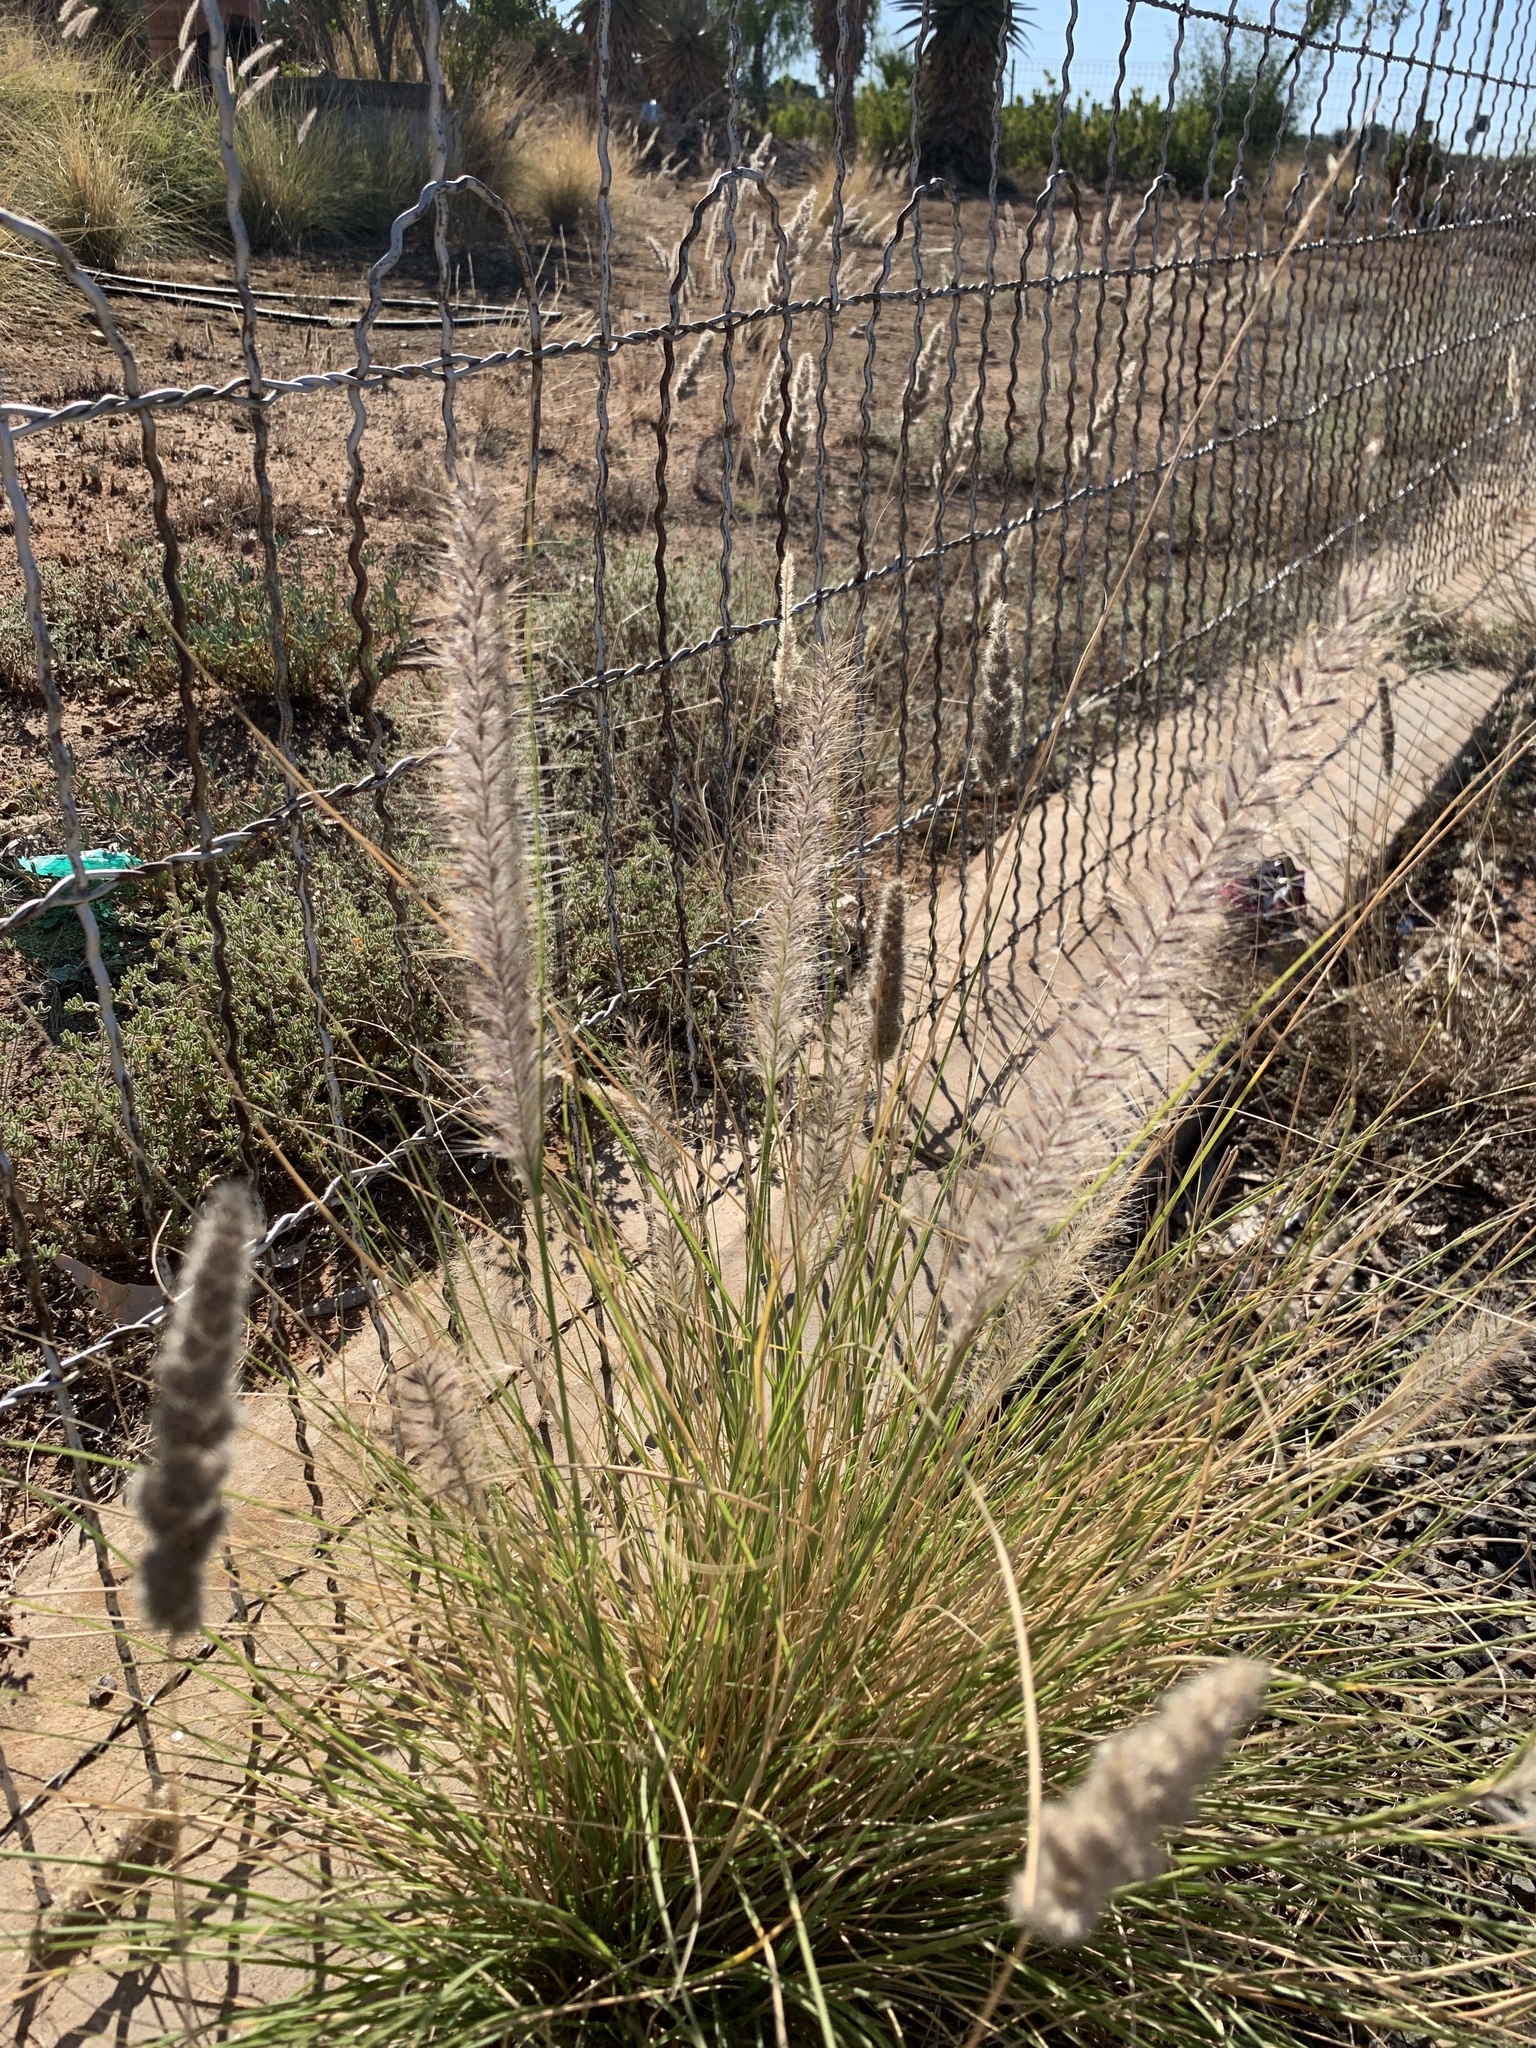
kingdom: Plantae
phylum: Tracheophyta
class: Liliopsida
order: Poales
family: Poaceae
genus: Cenchrus
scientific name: Cenchrus setaceus
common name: Crimson fountaingrass
